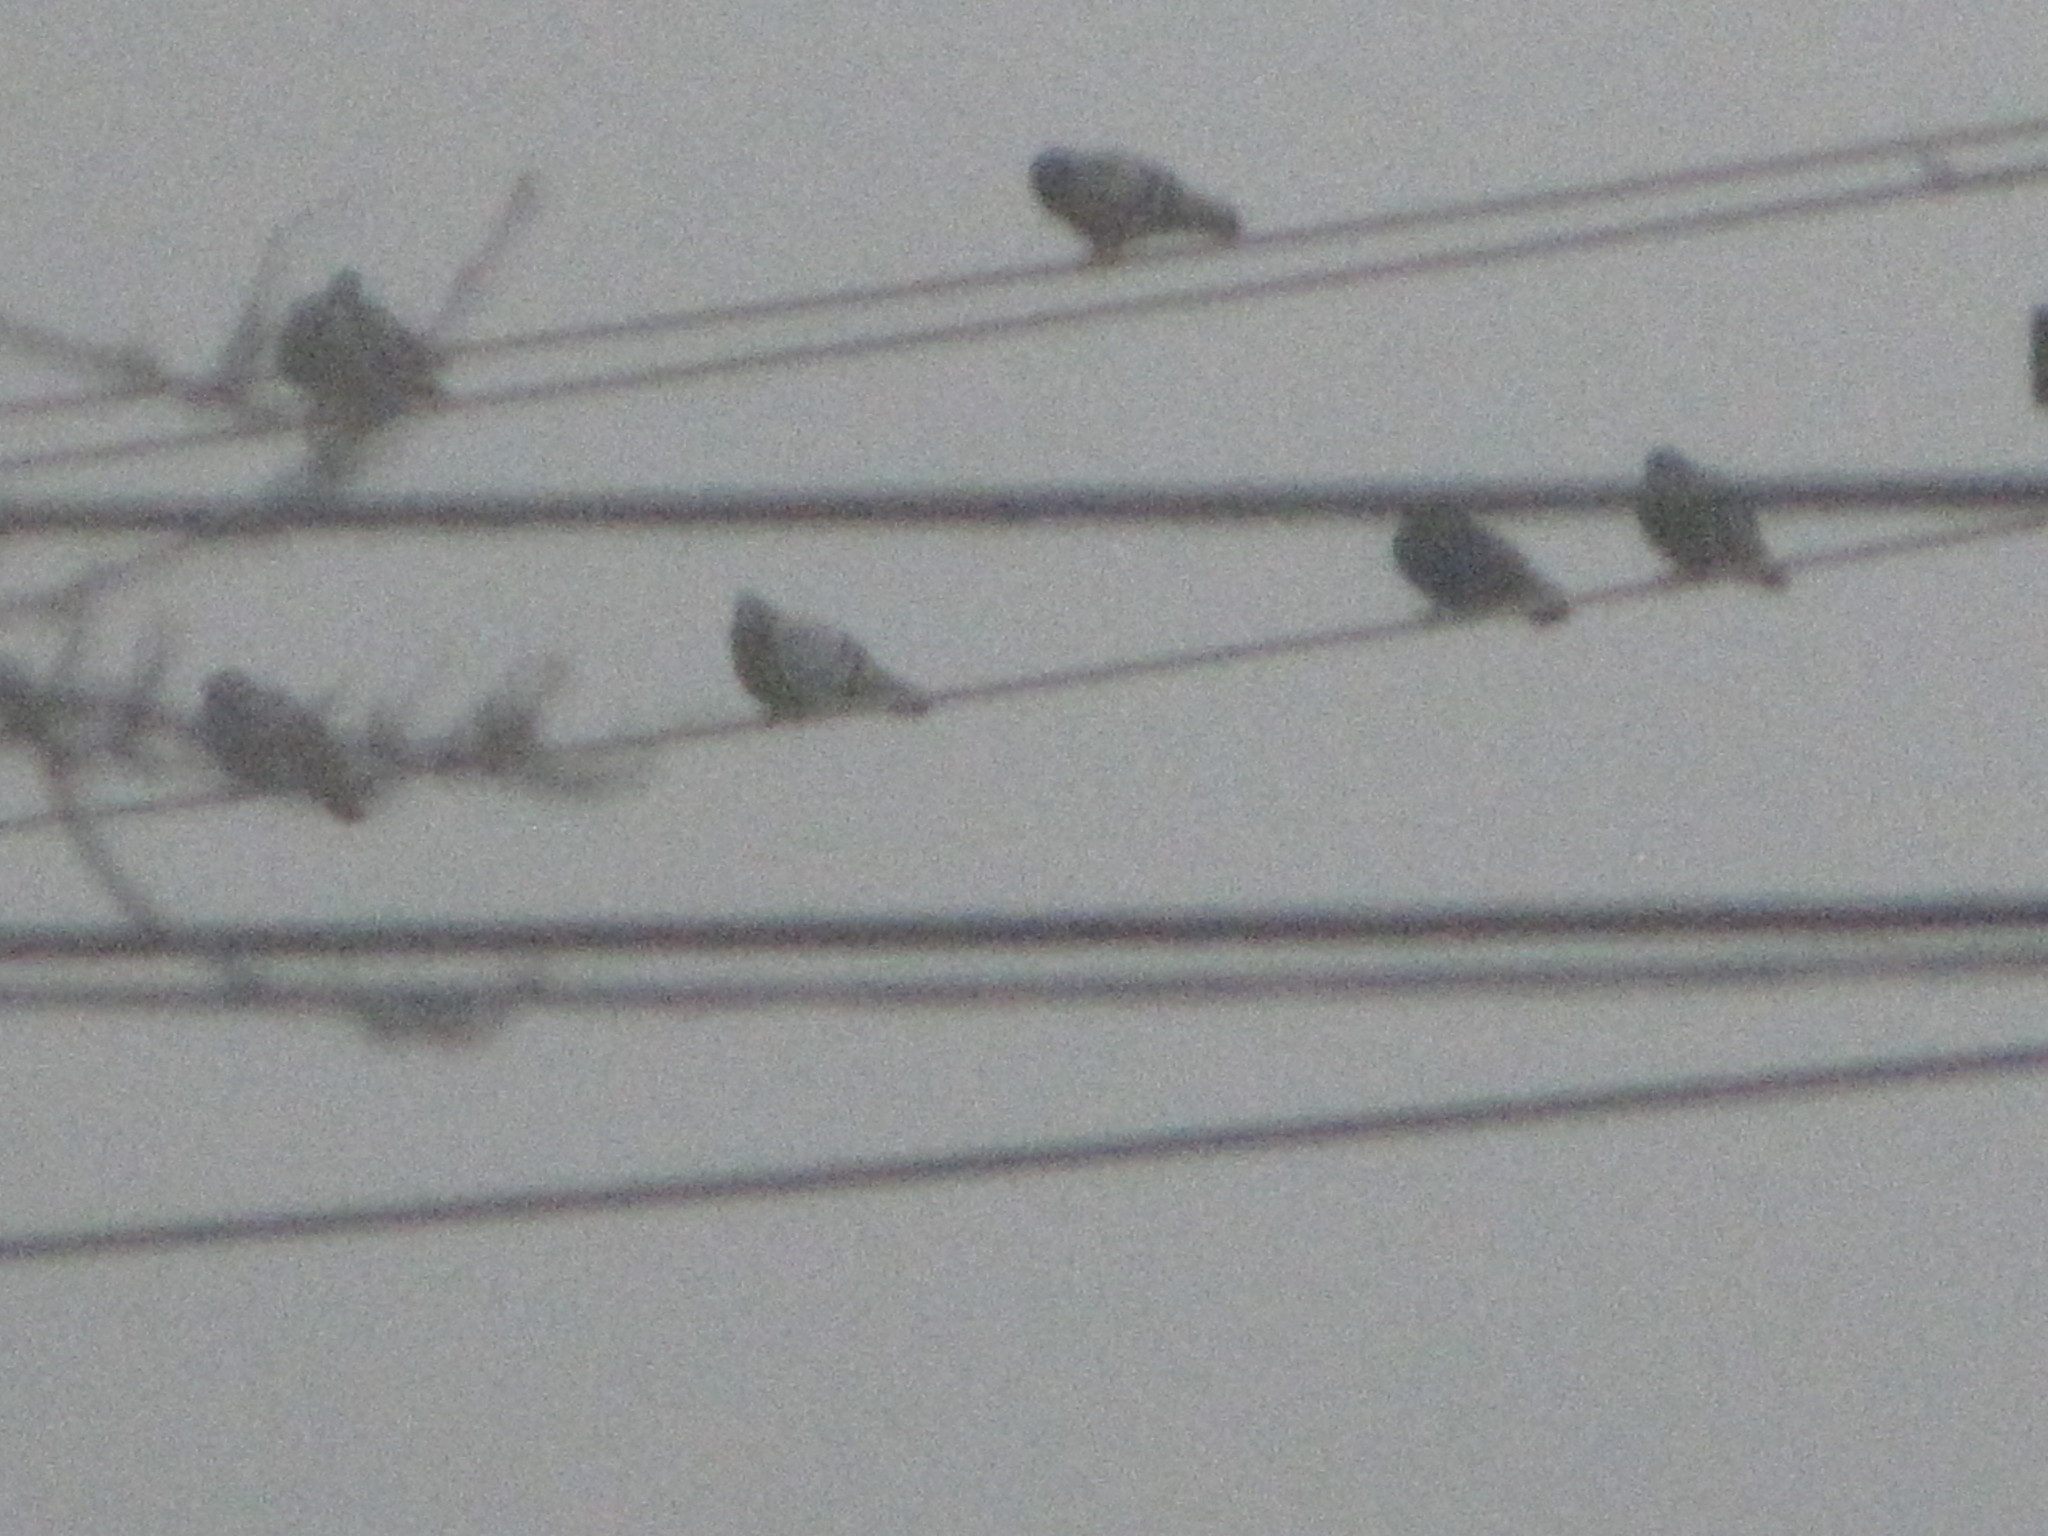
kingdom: Animalia
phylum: Chordata
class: Aves
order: Columbiformes
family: Columbidae
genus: Columba
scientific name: Columba livia
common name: Rock pigeon
